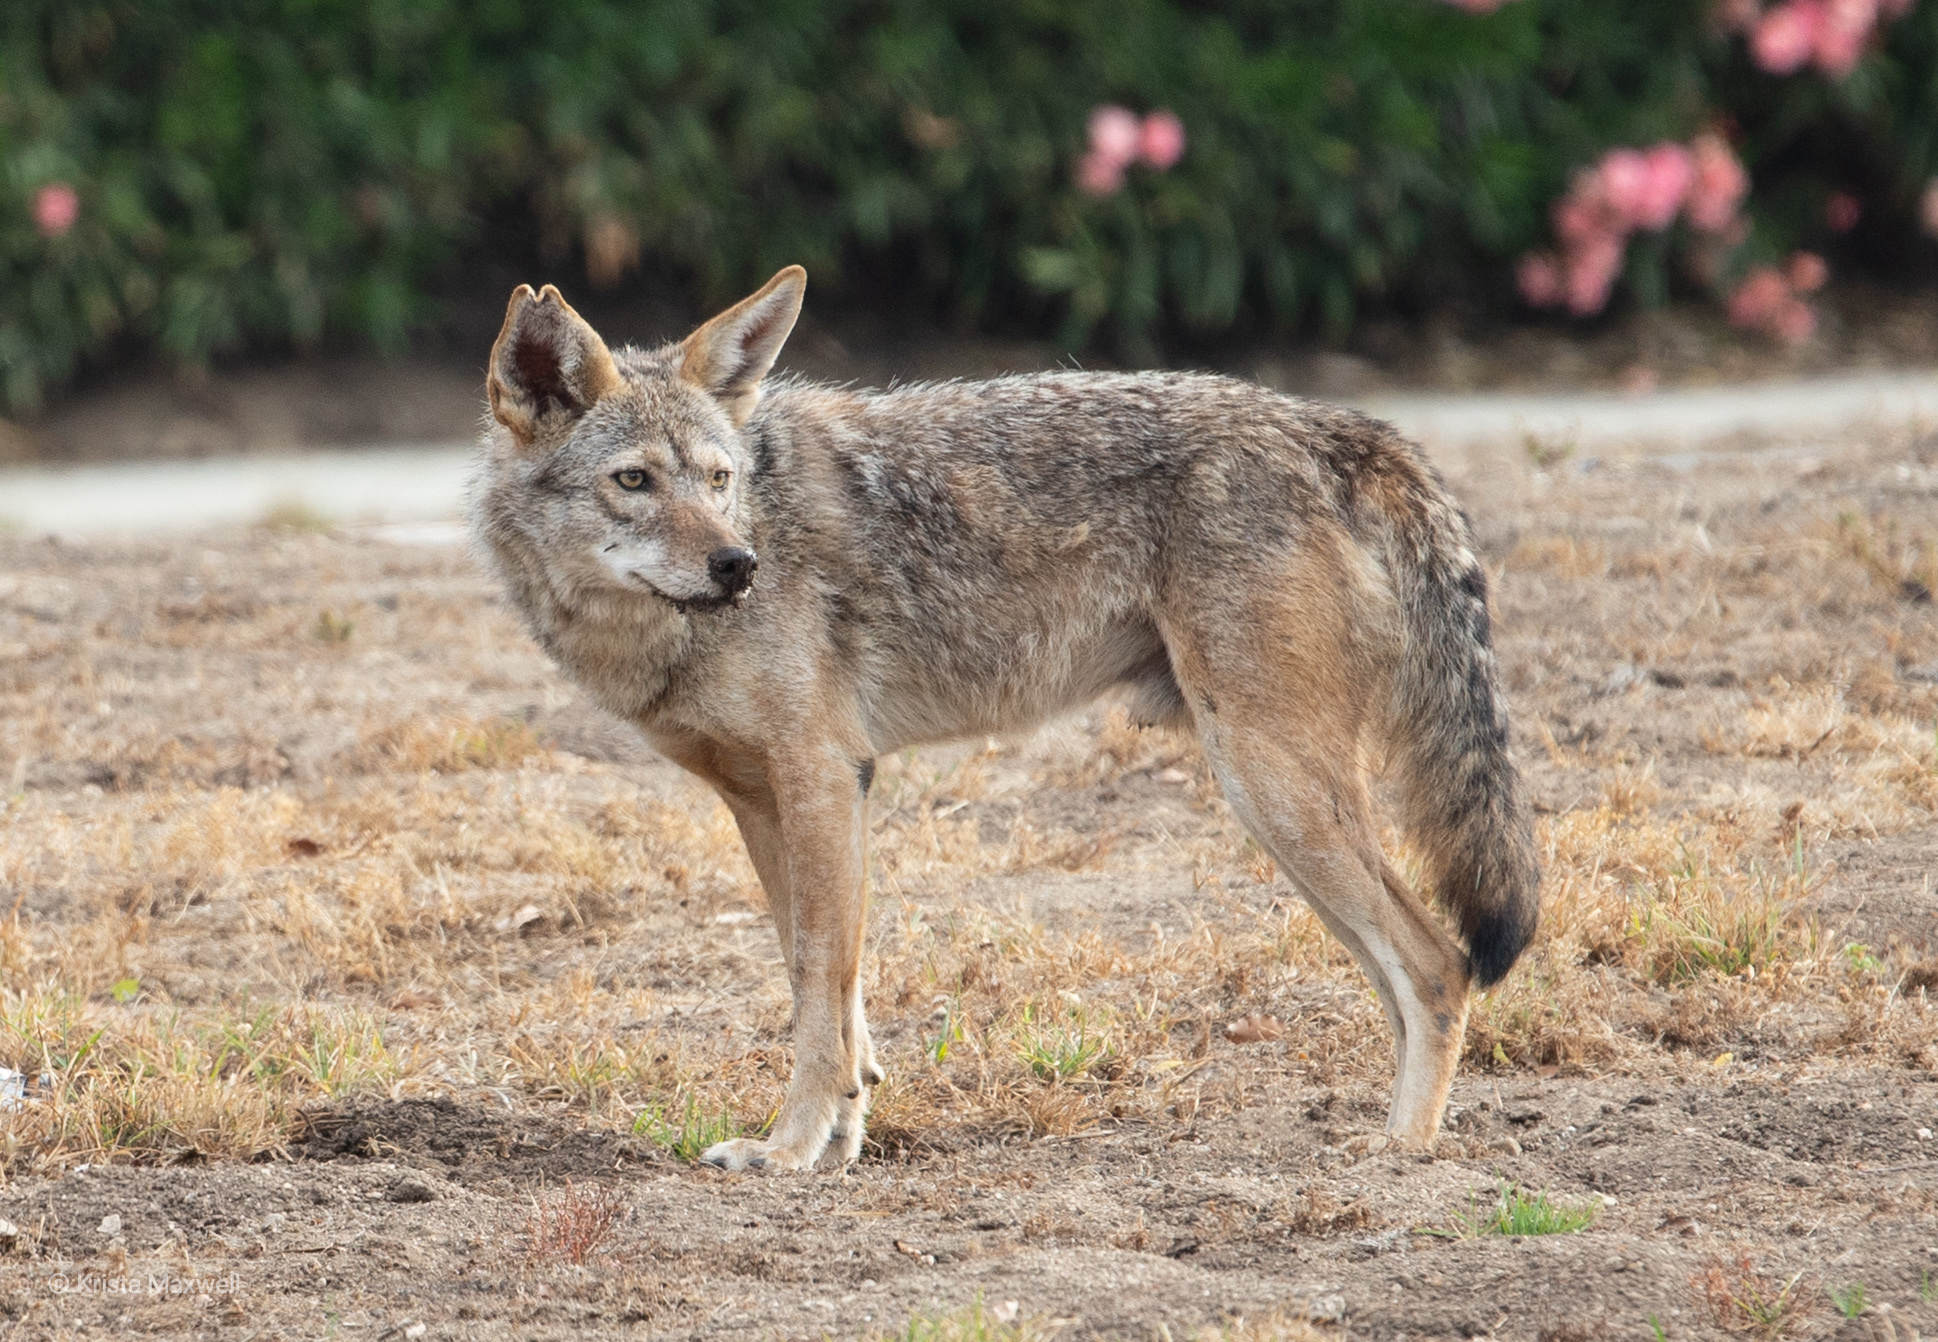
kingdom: Animalia
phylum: Chordata
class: Mammalia
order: Carnivora
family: Canidae
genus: Canis
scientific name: Canis latrans
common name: Coyote
